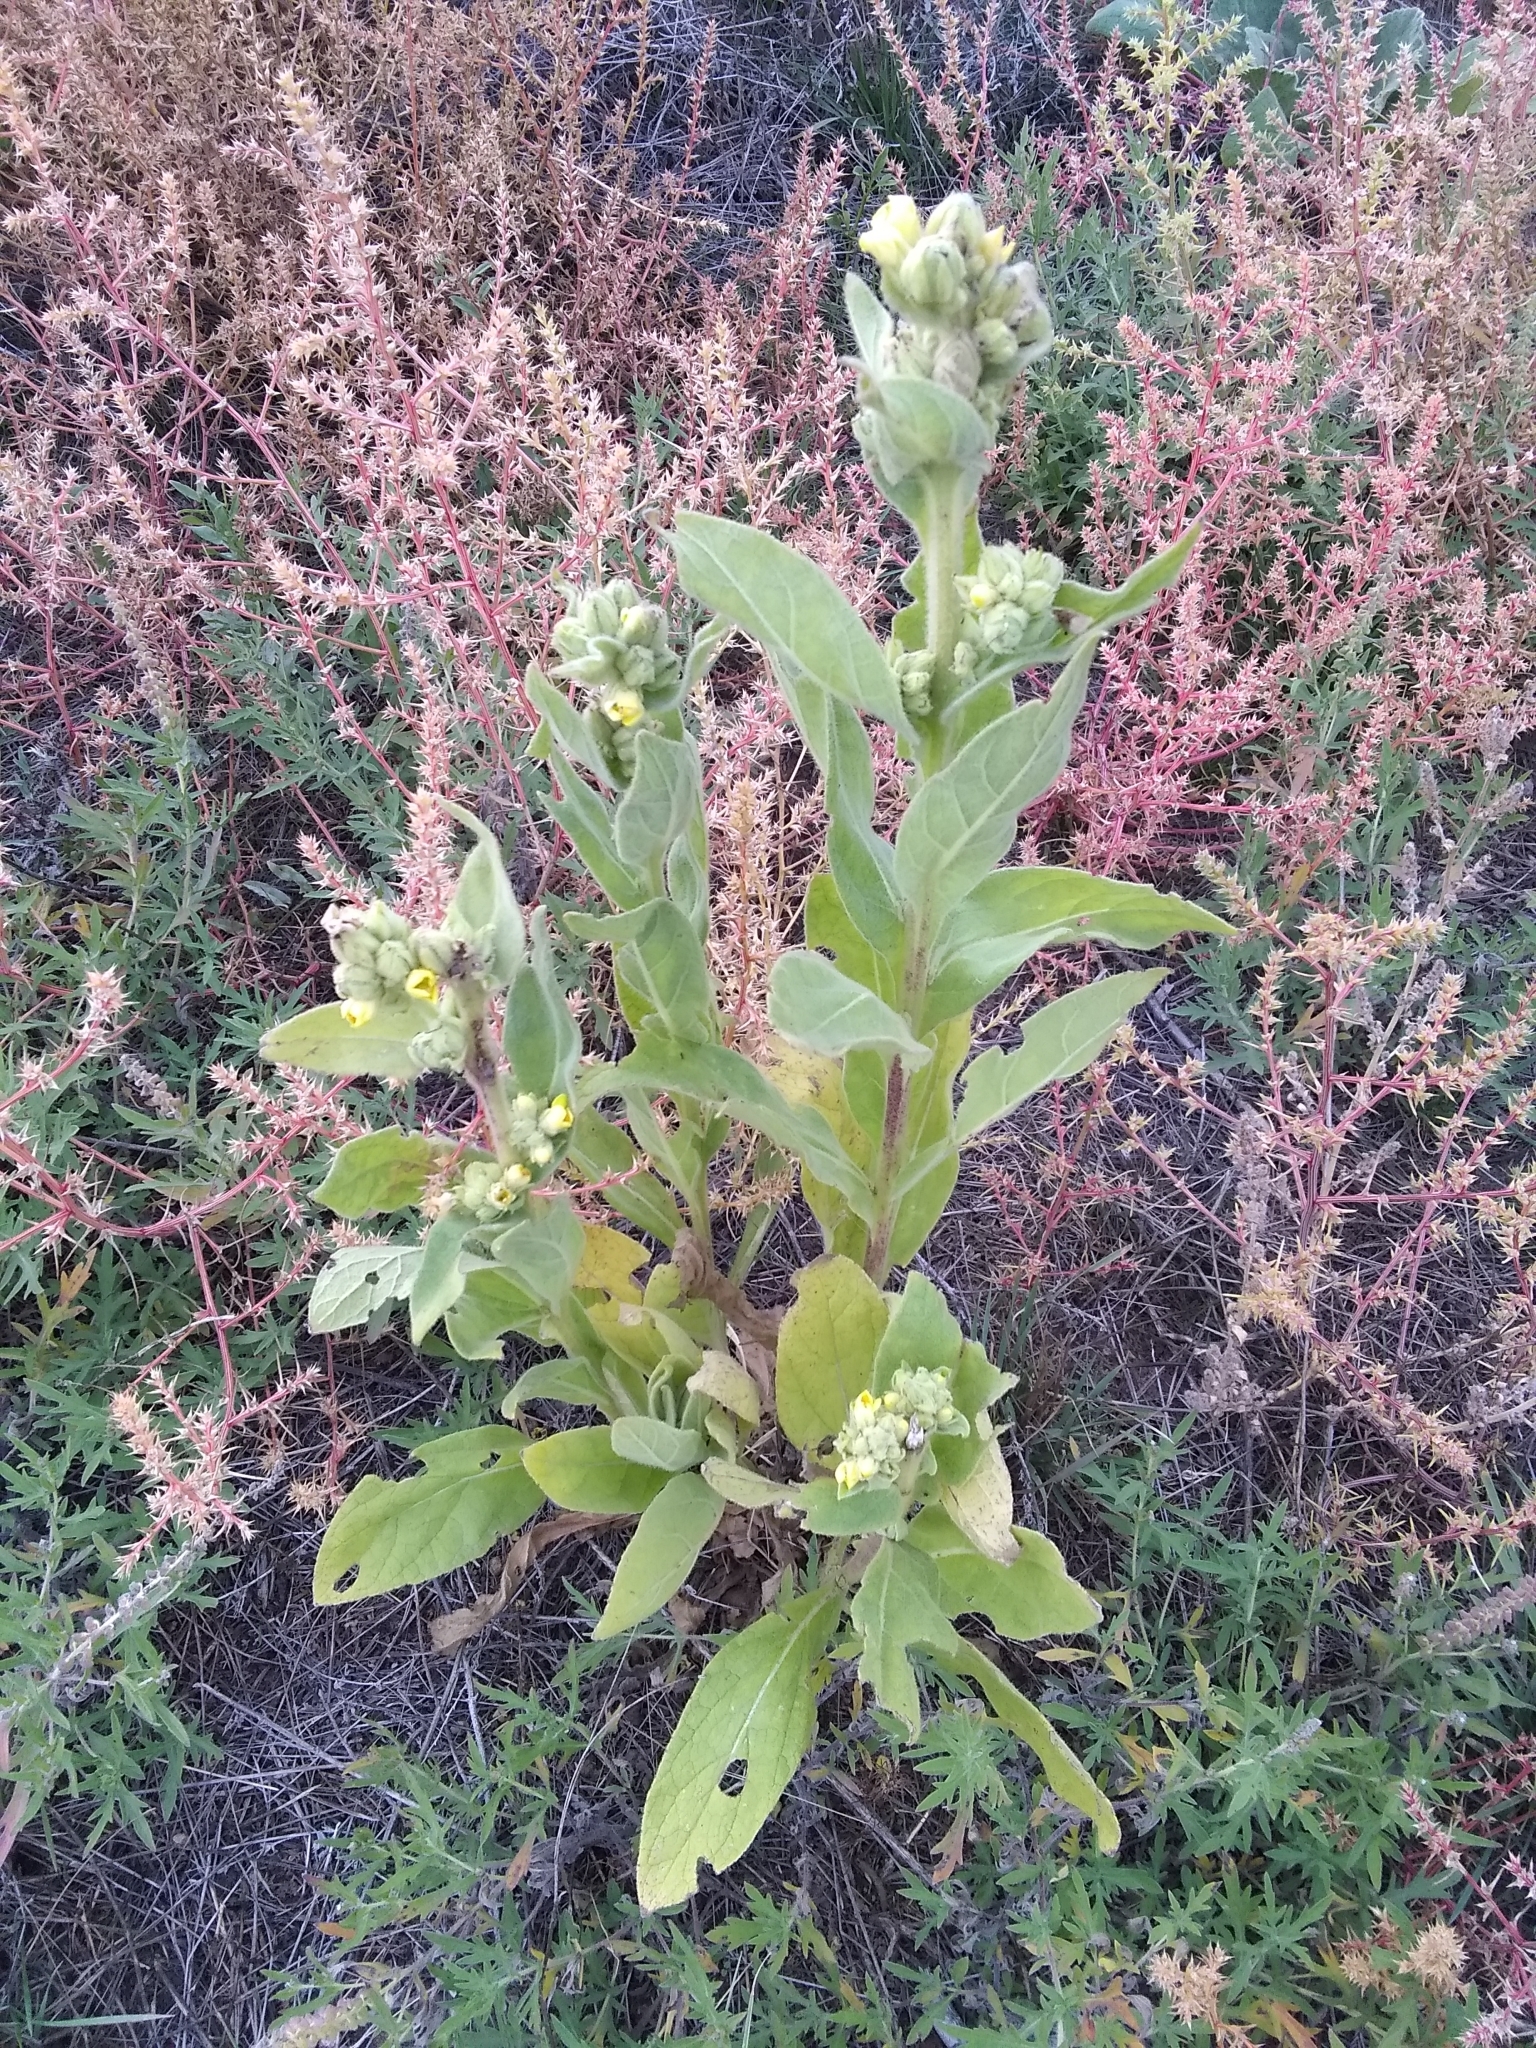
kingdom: Plantae
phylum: Tracheophyta
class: Magnoliopsida
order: Lamiales
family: Scrophulariaceae
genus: Verbascum
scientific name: Verbascum thapsus
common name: Common mullein
